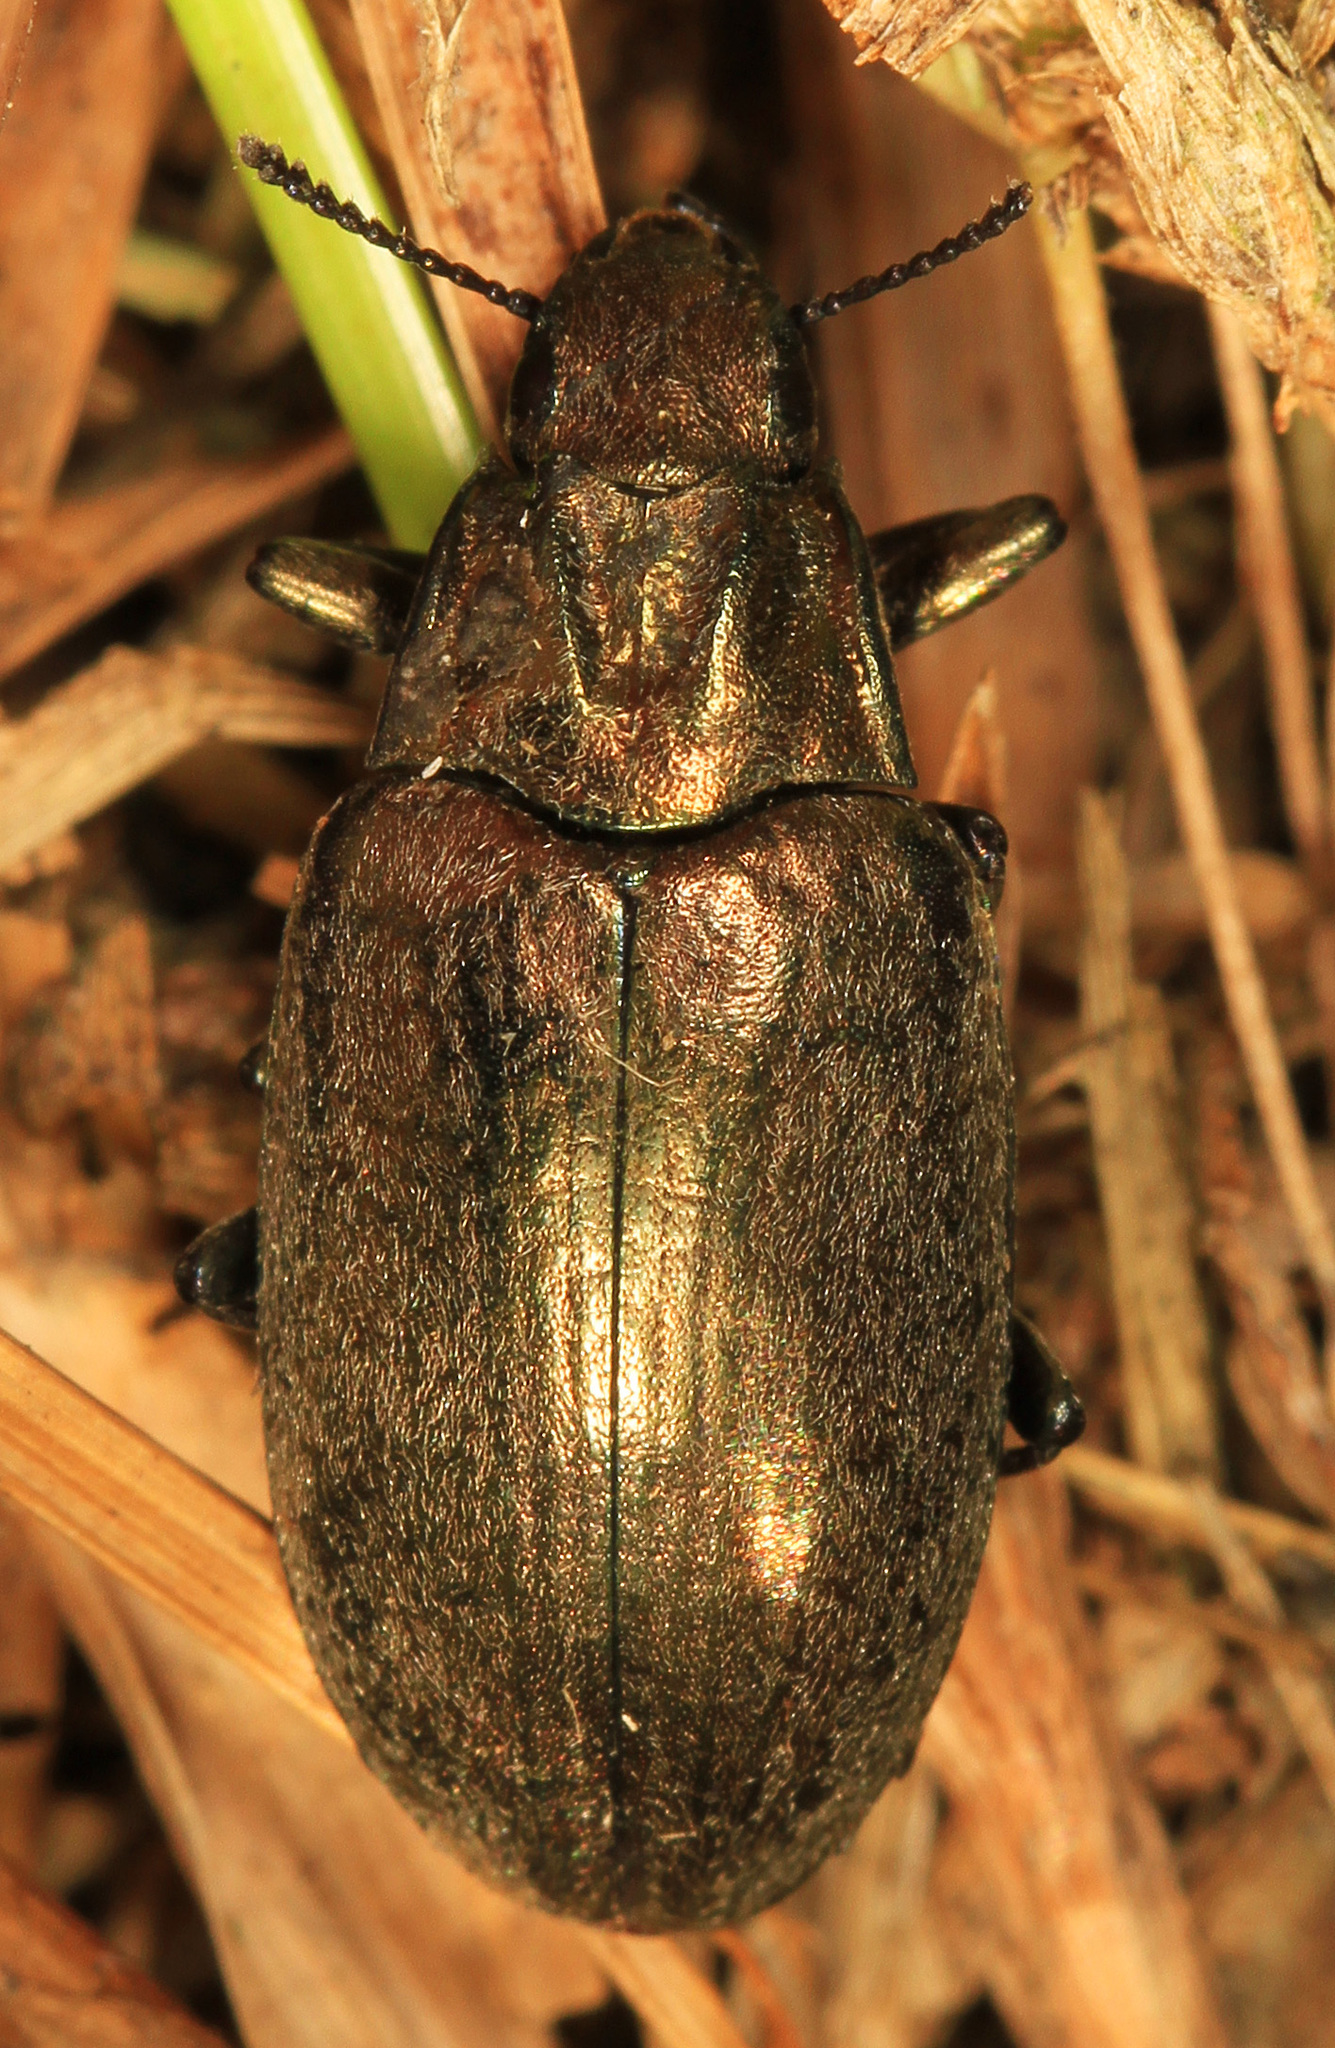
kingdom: Animalia
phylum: Arthropoda
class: Insecta
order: Coleoptera
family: Tenebrionidae
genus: Bothrotes
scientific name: Bothrotes canaliculatus
